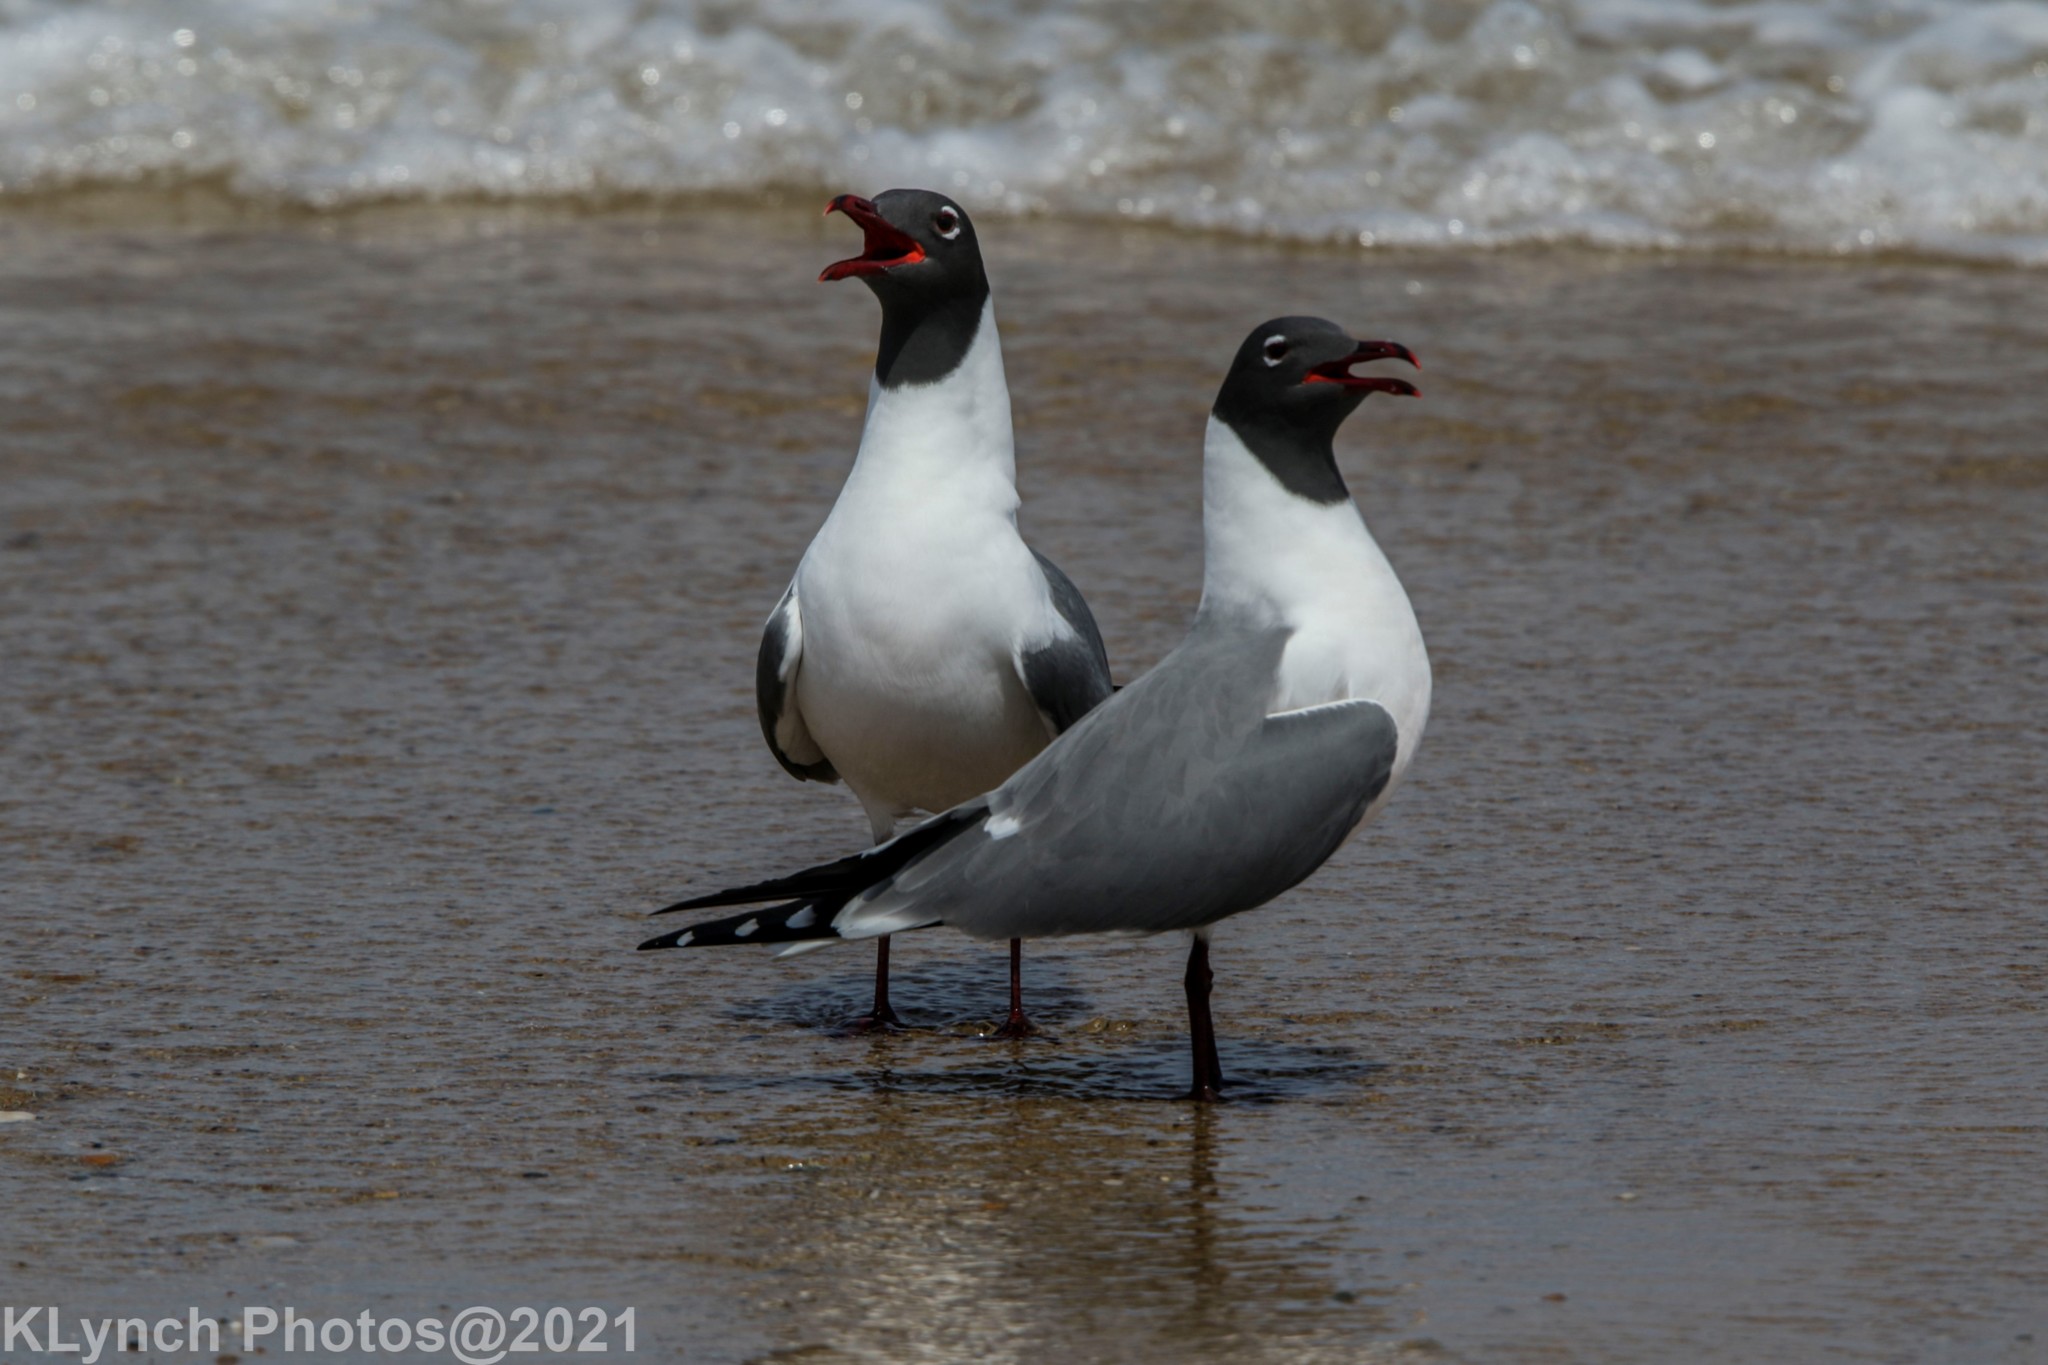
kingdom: Animalia
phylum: Chordata
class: Aves
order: Charadriiformes
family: Laridae
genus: Leucophaeus
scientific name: Leucophaeus atricilla
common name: Laughing gull
